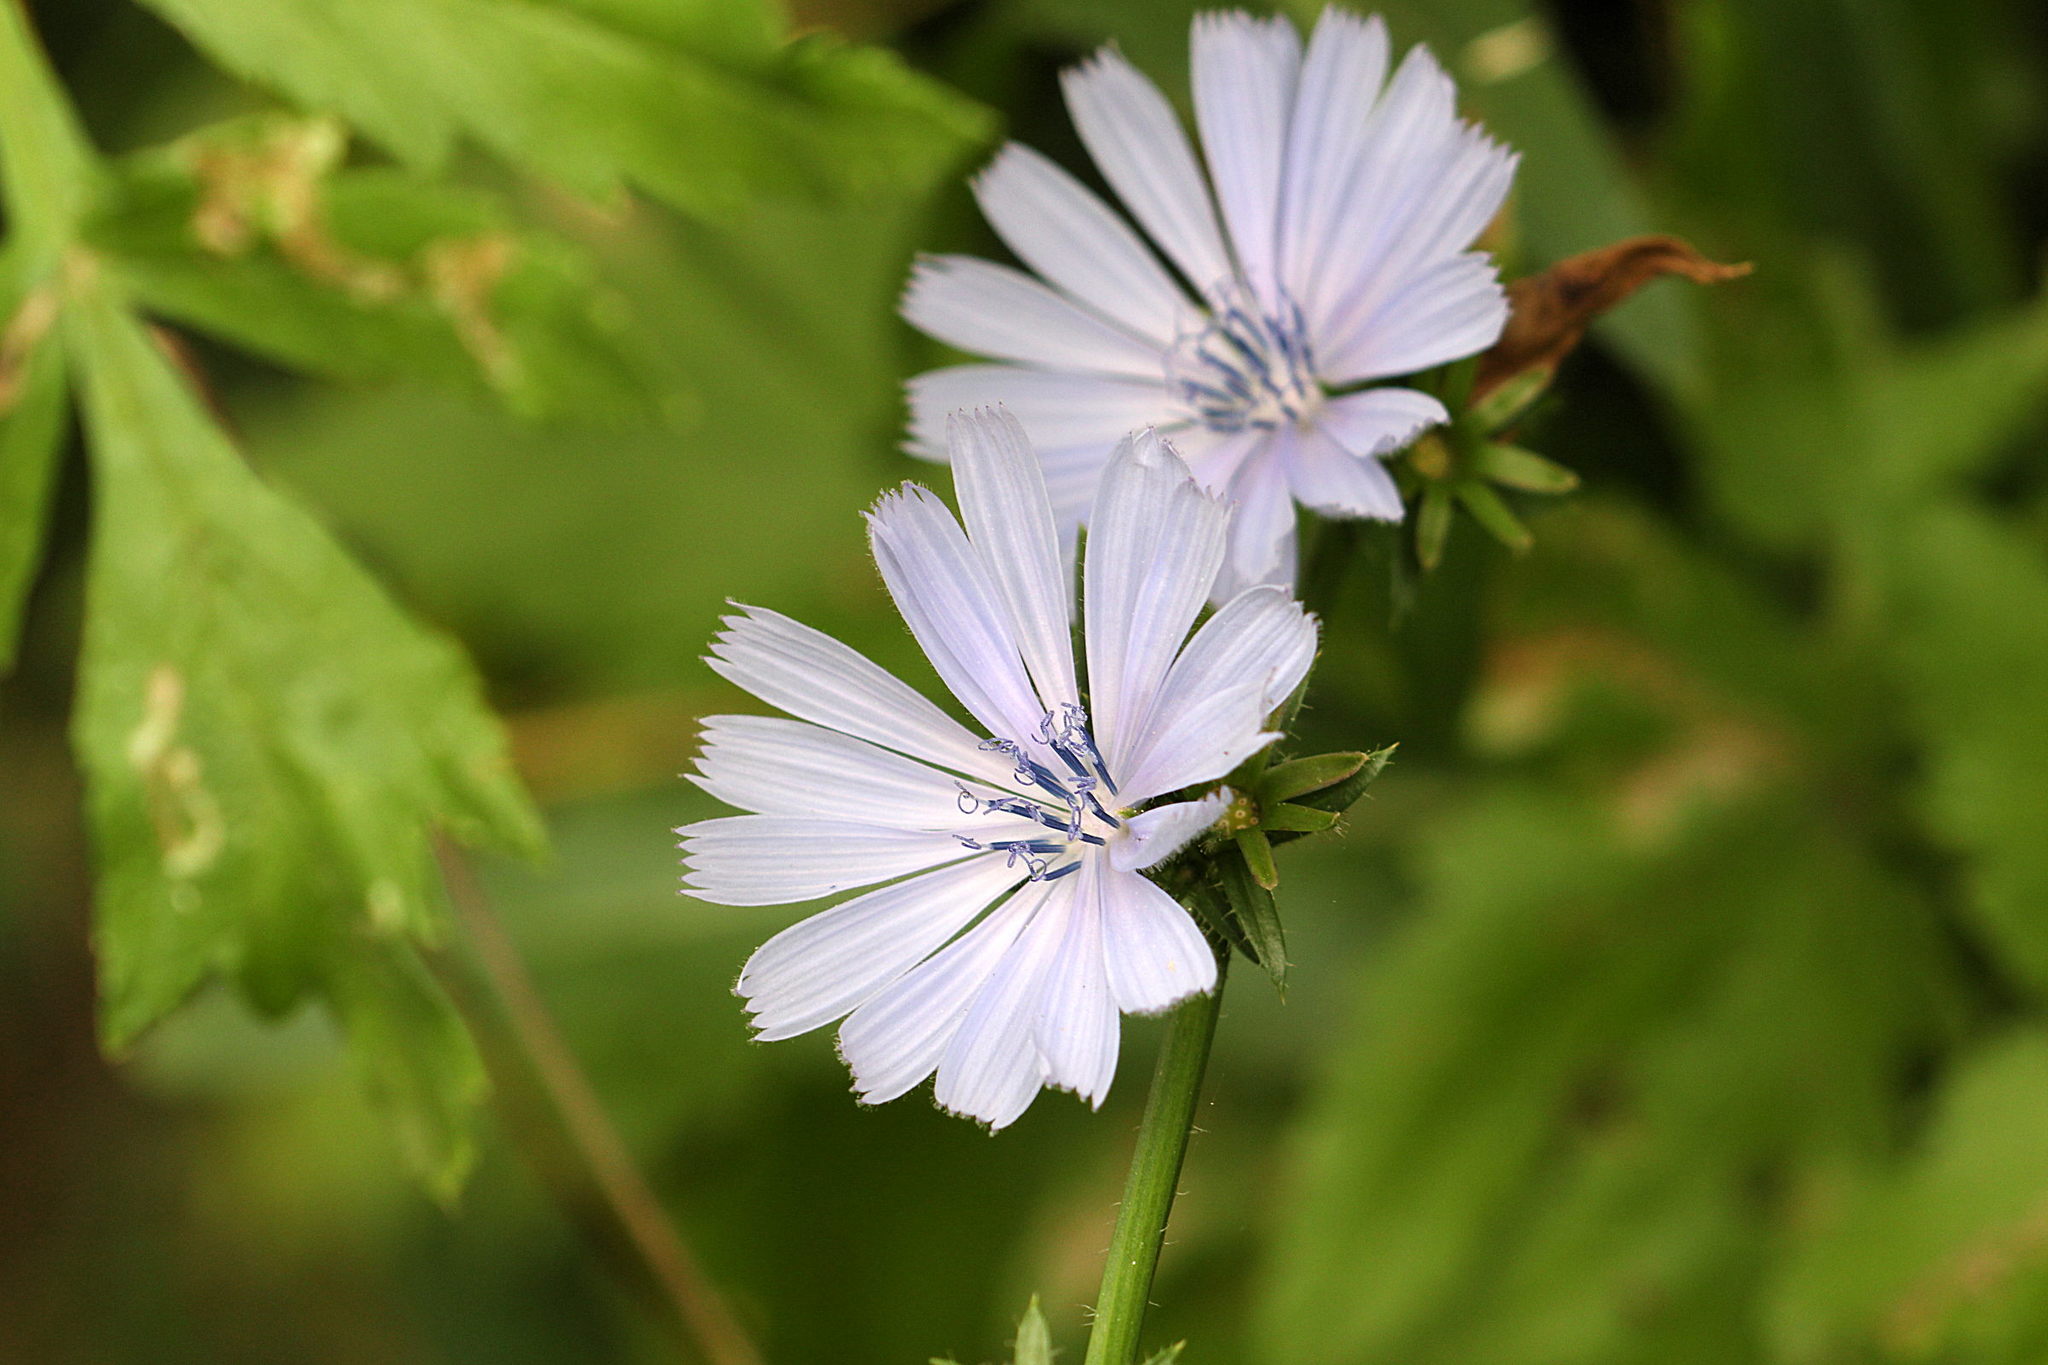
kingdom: Plantae
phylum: Tracheophyta
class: Magnoliopsida
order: Asterales
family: Asteraceae
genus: Cichorium
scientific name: Cichorium intybus
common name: Chicory
